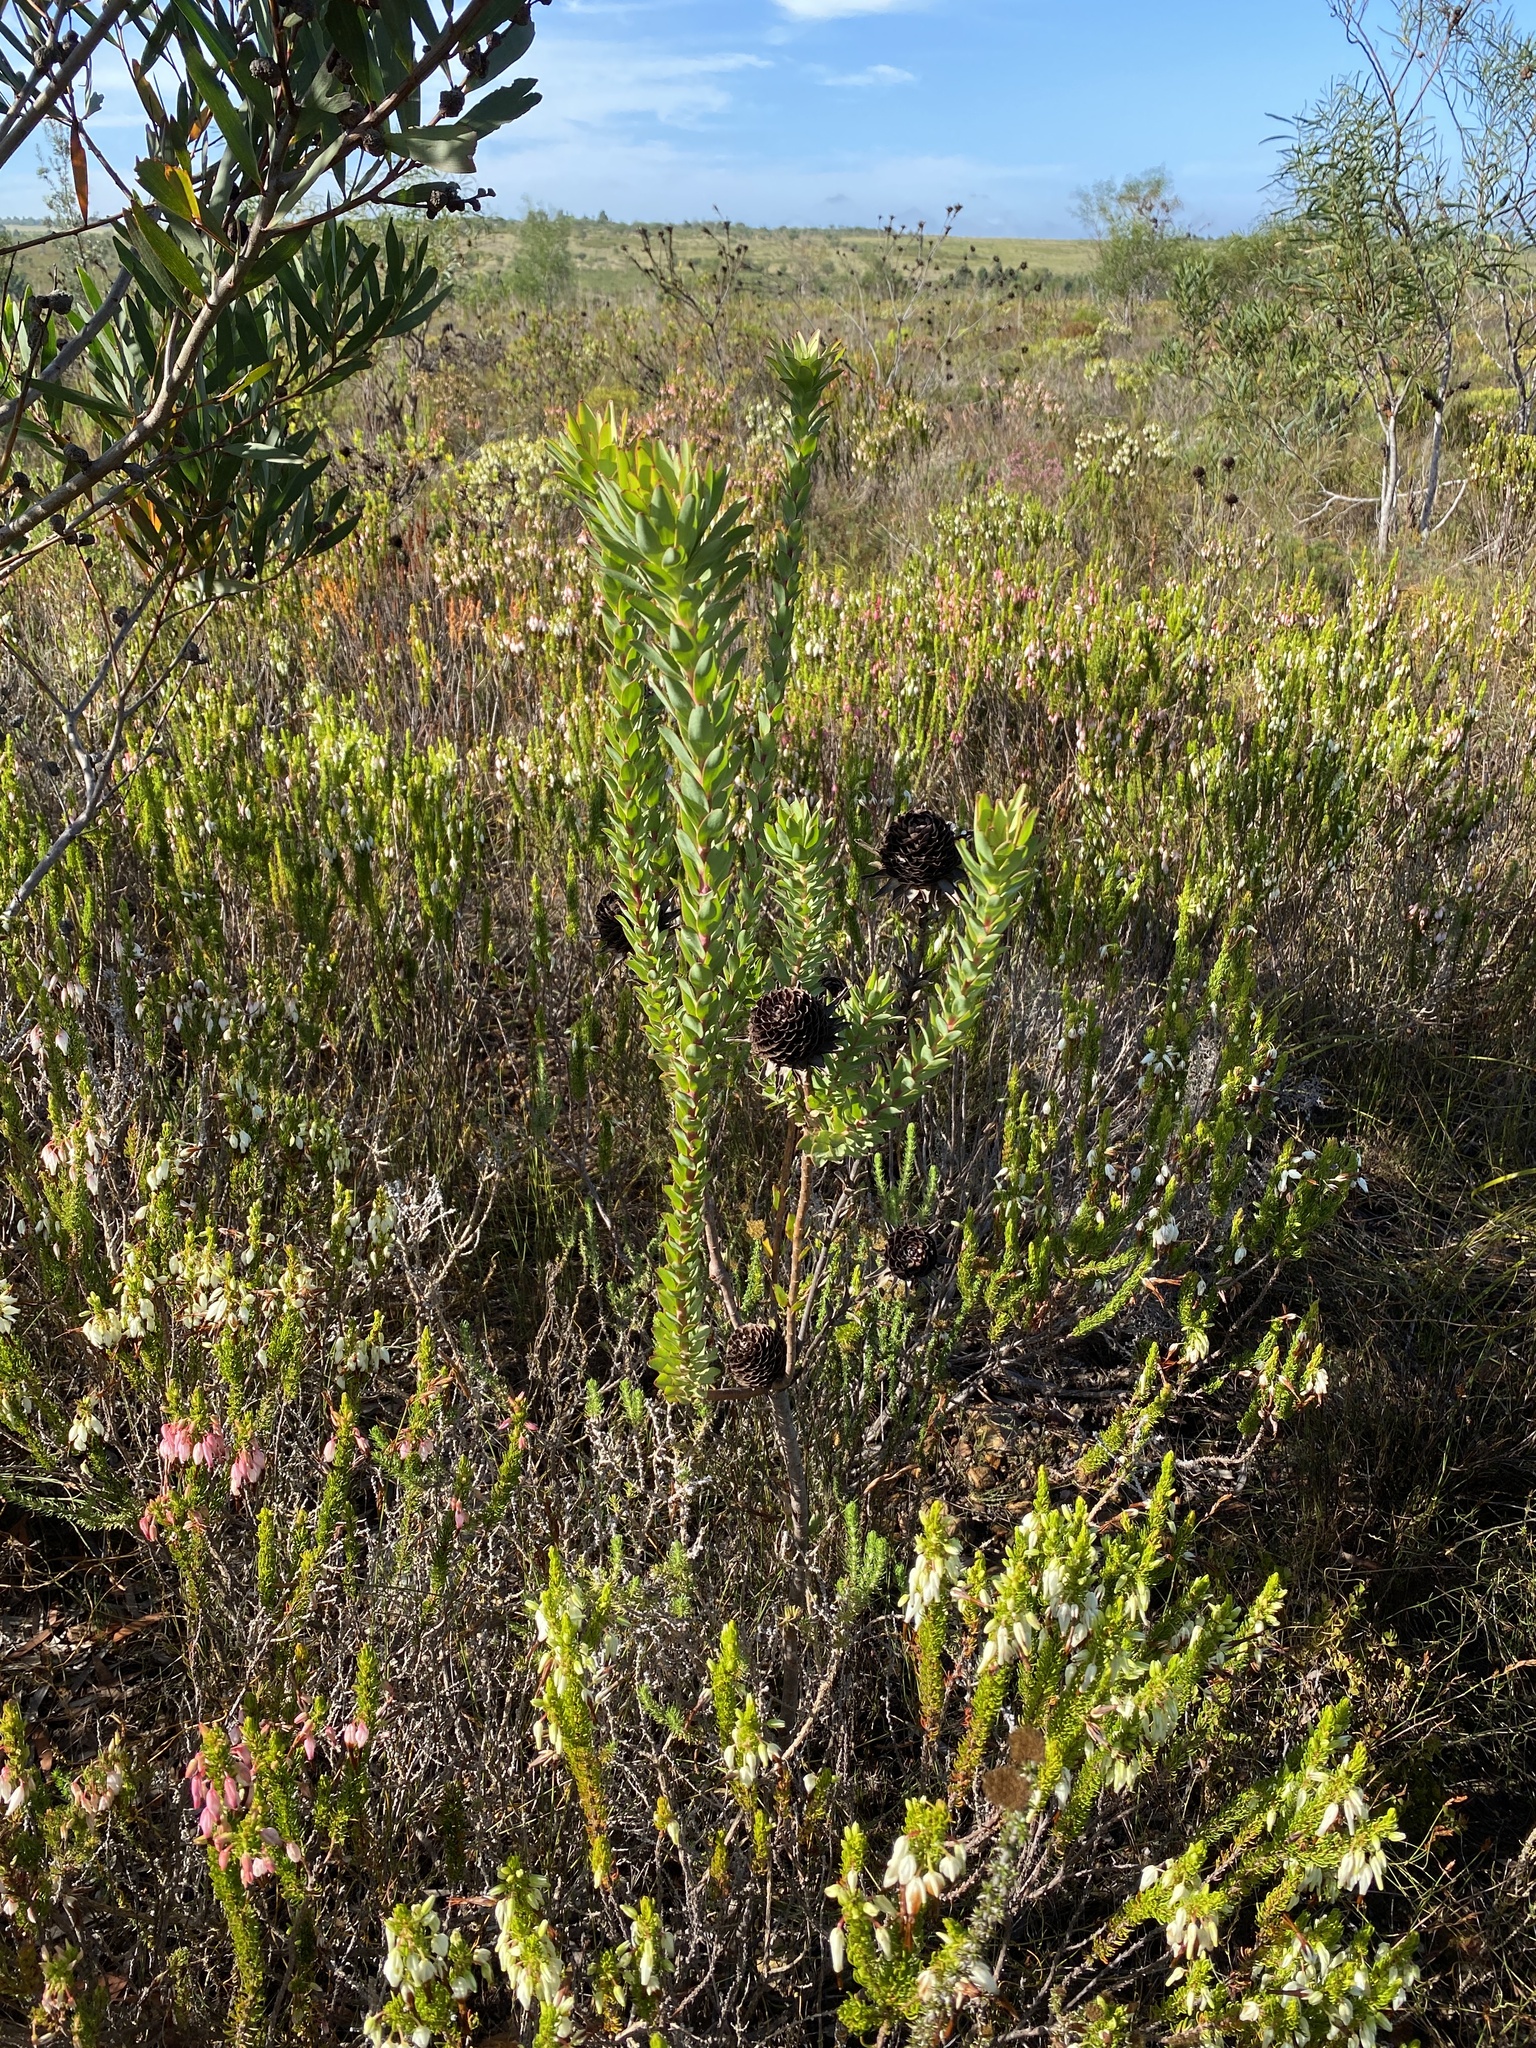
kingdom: Plantae
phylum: Tracheophyta
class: Magnoliopsida
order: Proteales
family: Proteaceae
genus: Leucadendron
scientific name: Leucadendron elimense
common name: Elim conebush
